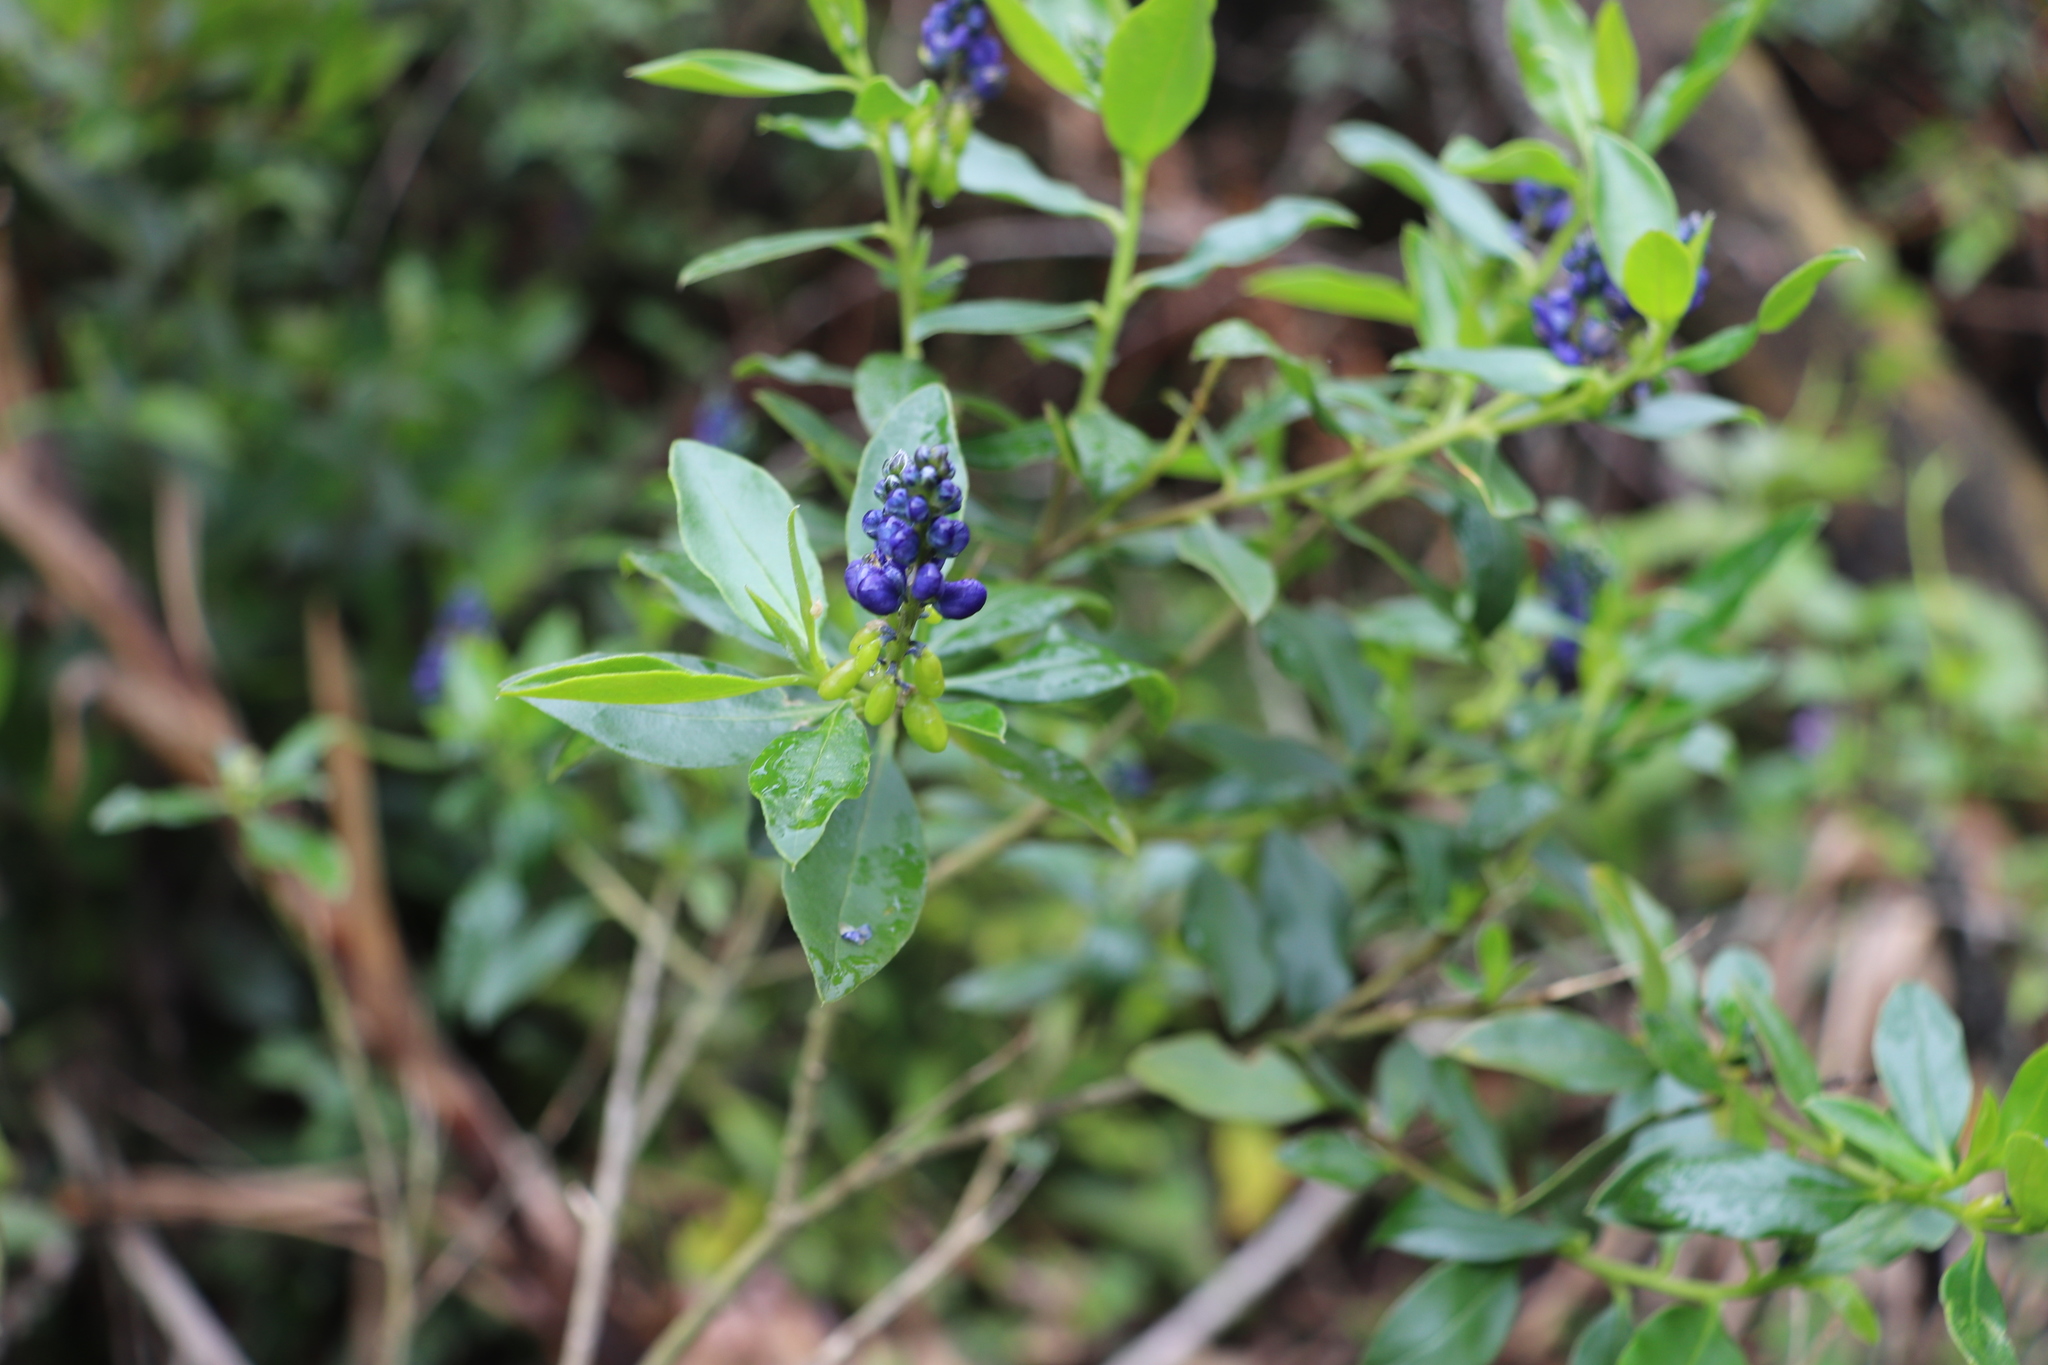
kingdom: Plantae
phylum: Tracheophyta
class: Magnoliopsida
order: Fabales
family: Polygalaceae
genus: Monnina
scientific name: Monnina aestuans
